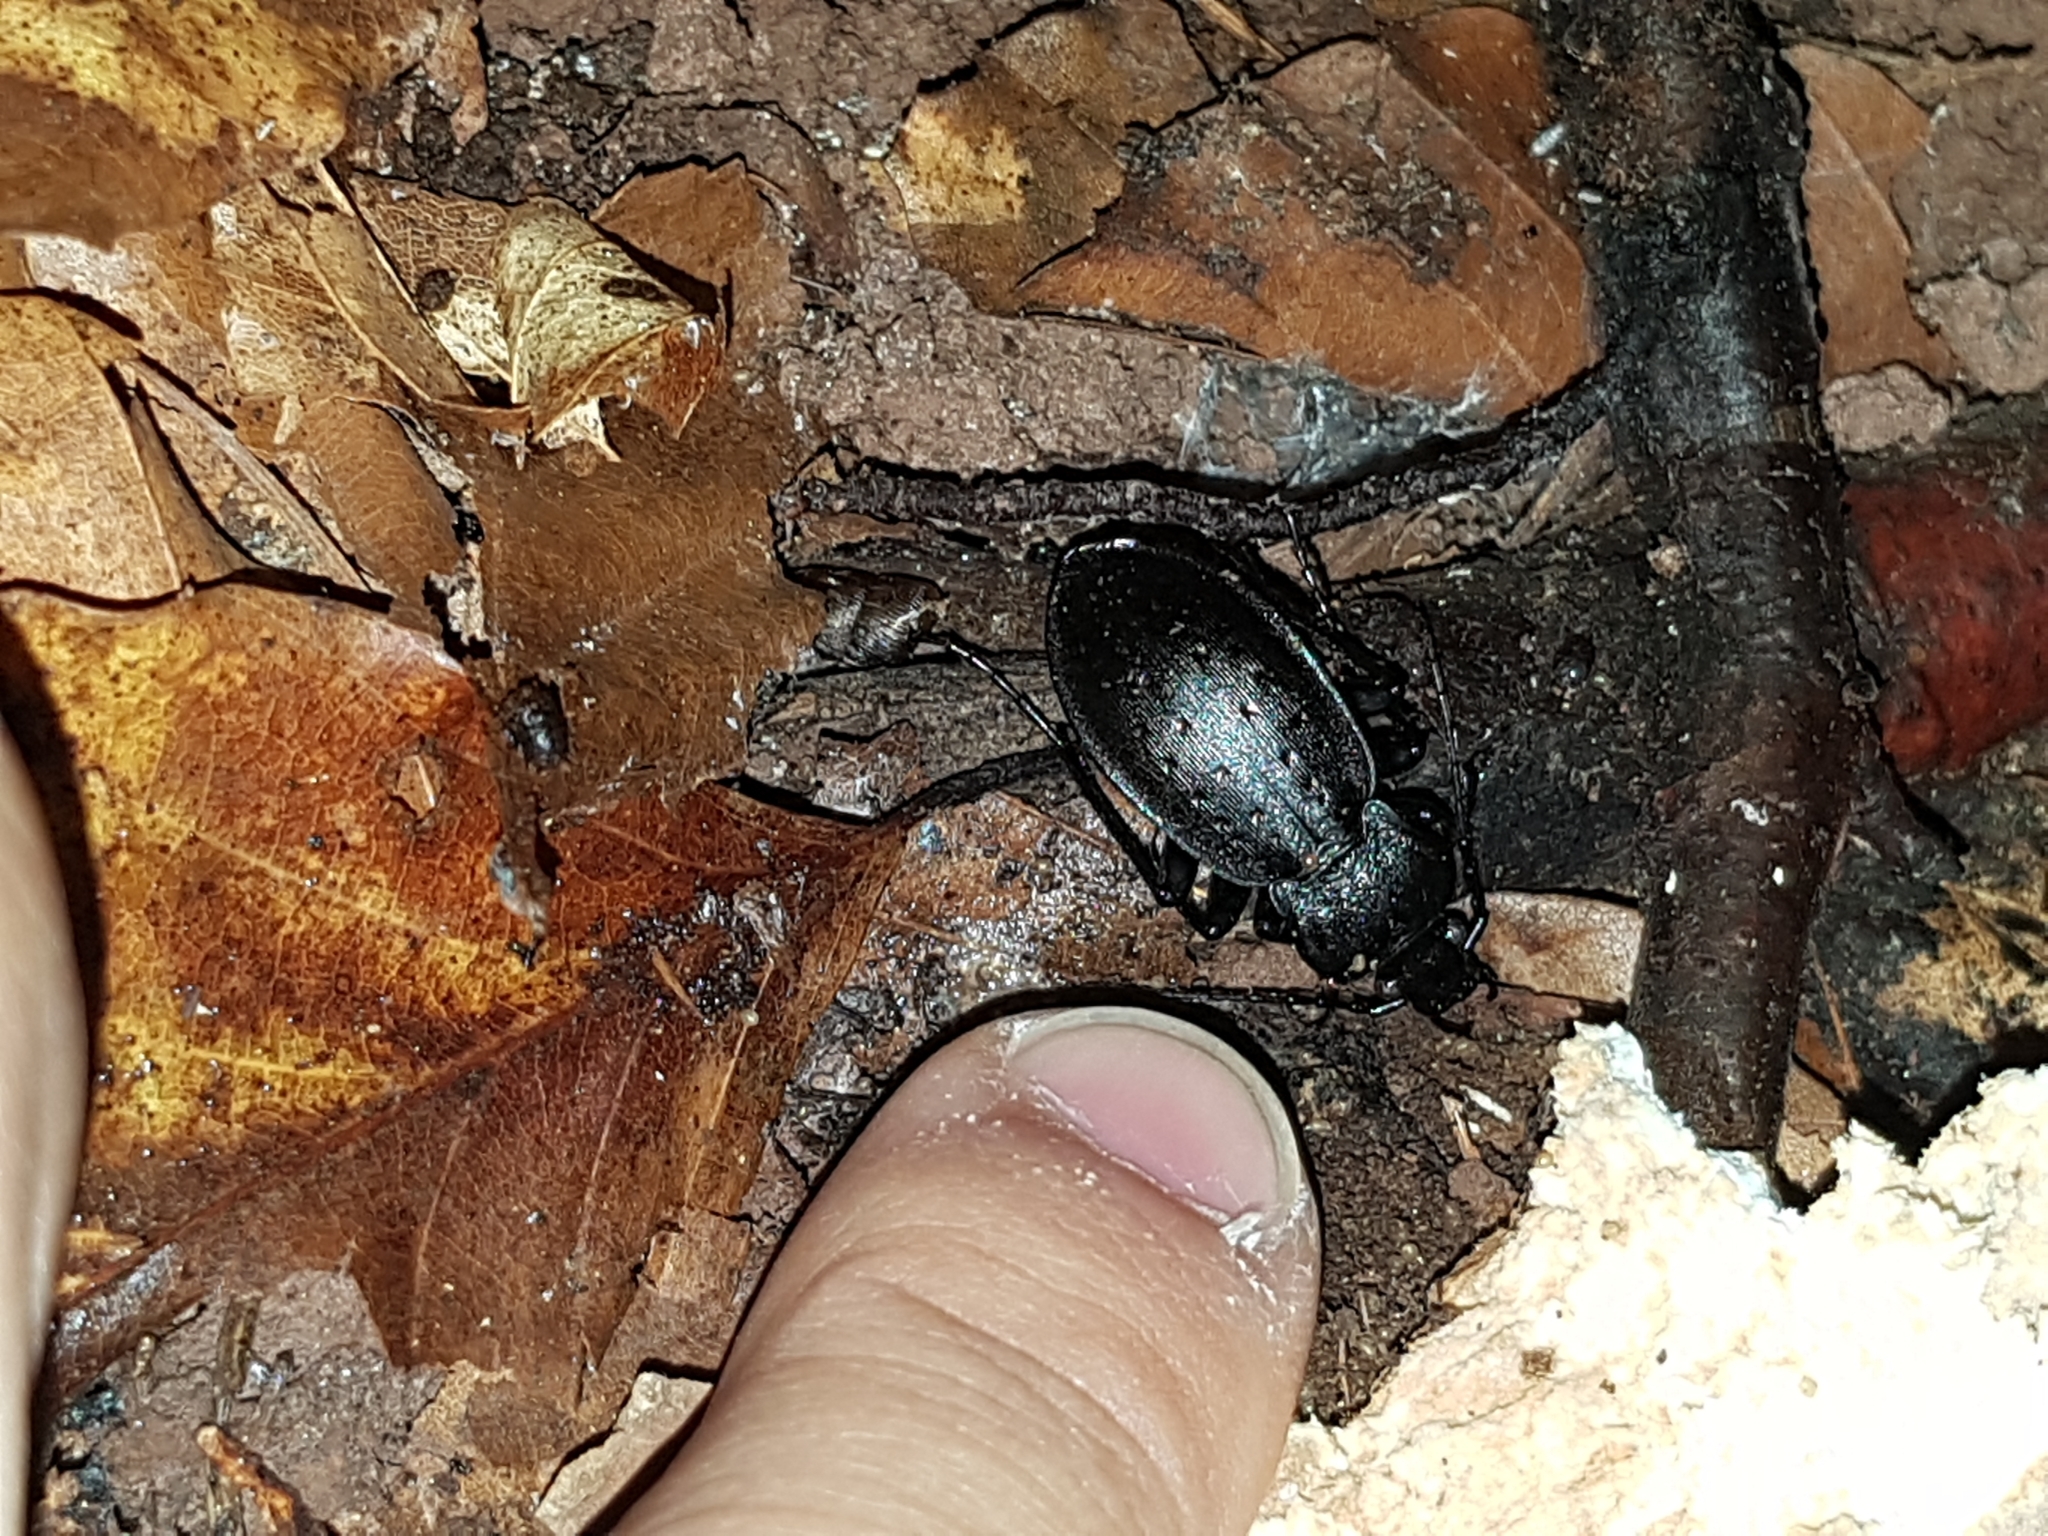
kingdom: Animalia
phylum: Arthropoda
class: Insecta
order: Coleoptera
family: Carabidae
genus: Carabus
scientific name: Carabus hortensis
